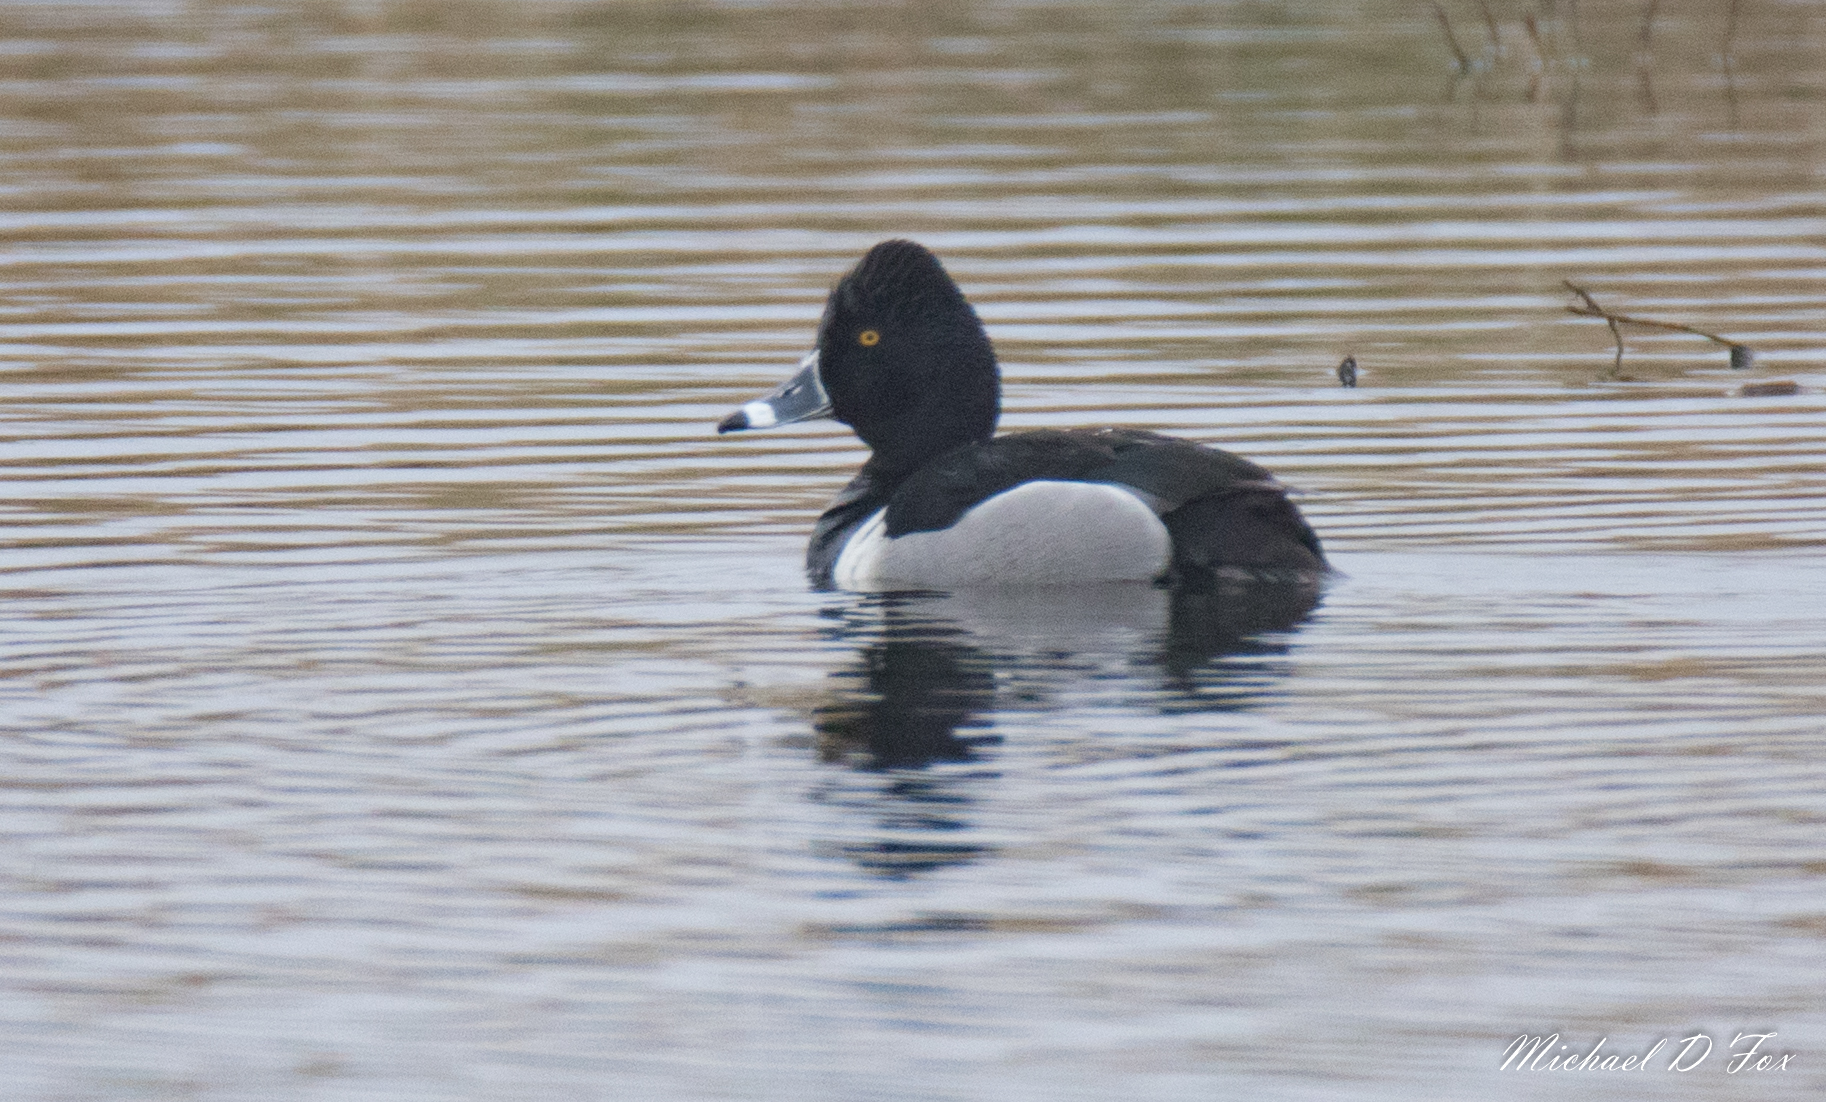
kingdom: Animalia
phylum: Chordata
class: Aves
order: Anseriformes
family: Anatidae
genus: Aythya
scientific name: Aythya collaris
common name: Ring-necked duck
